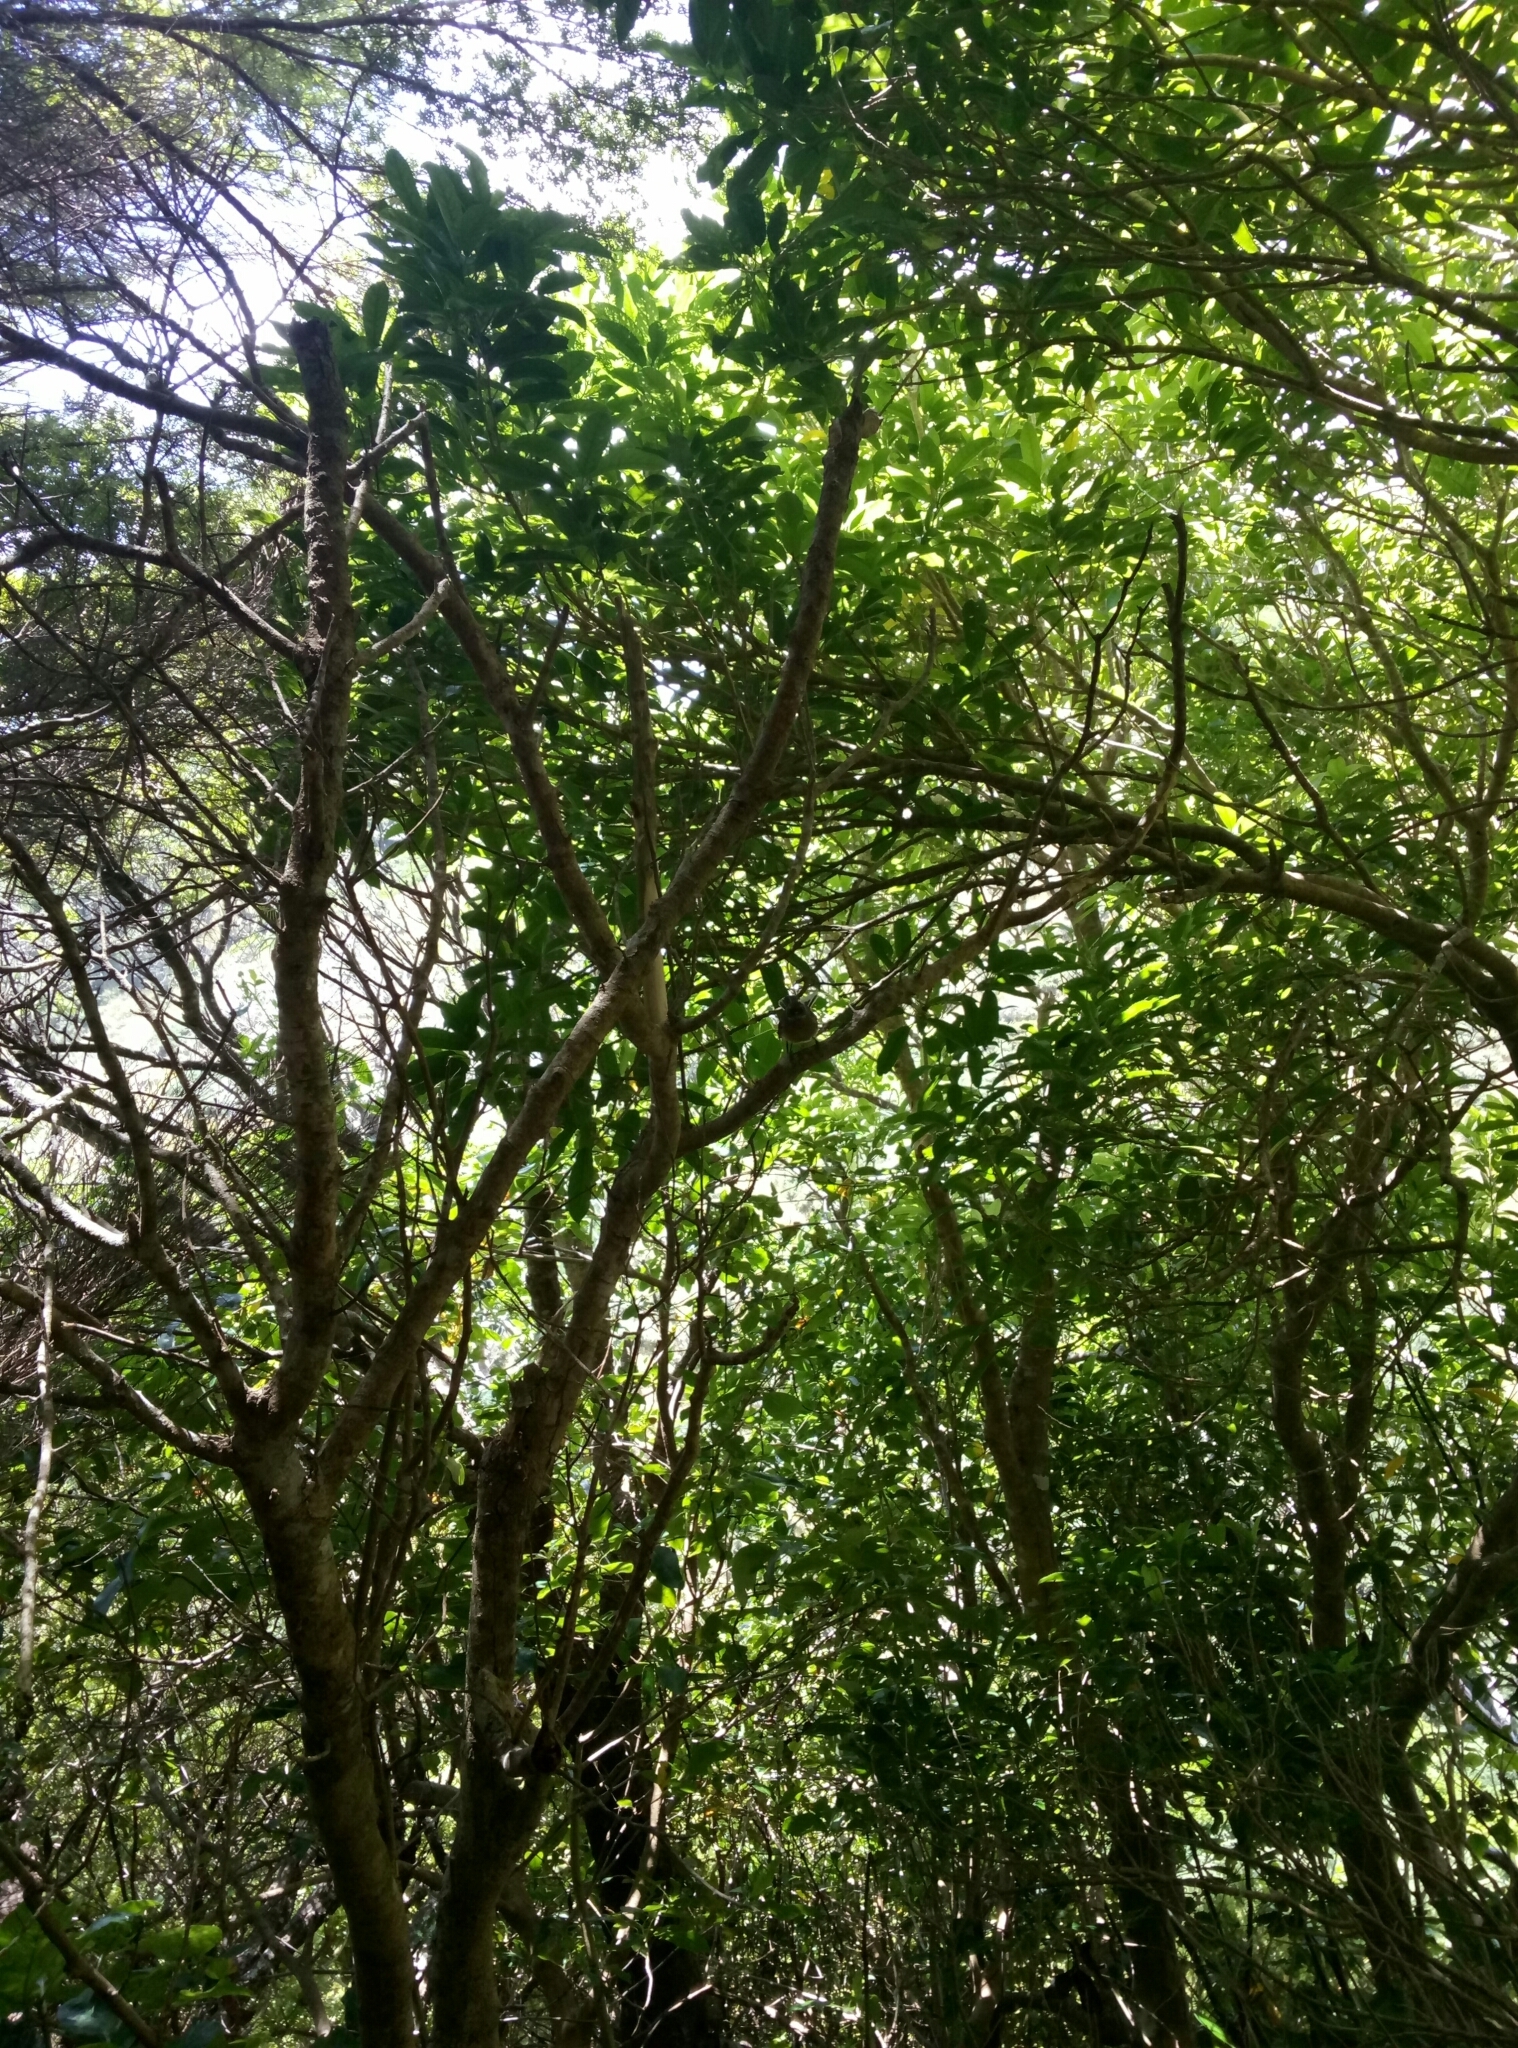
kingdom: Animalia
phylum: Chordata
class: Aves
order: Passeriformes
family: Rhipiduridae
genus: Rhipidura
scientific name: Rhipidura fuliginosa
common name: New zealand fantail
